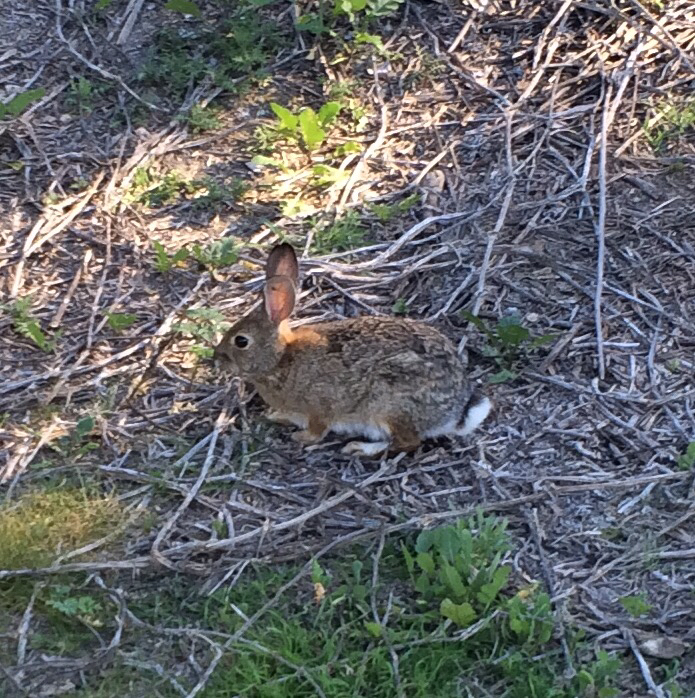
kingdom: Animalia
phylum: Chordata
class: Mammalia
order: Lagomorpha
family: Leporidae
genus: Sylvilagus
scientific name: Sylvilagus audubonii
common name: Desert cottontail
